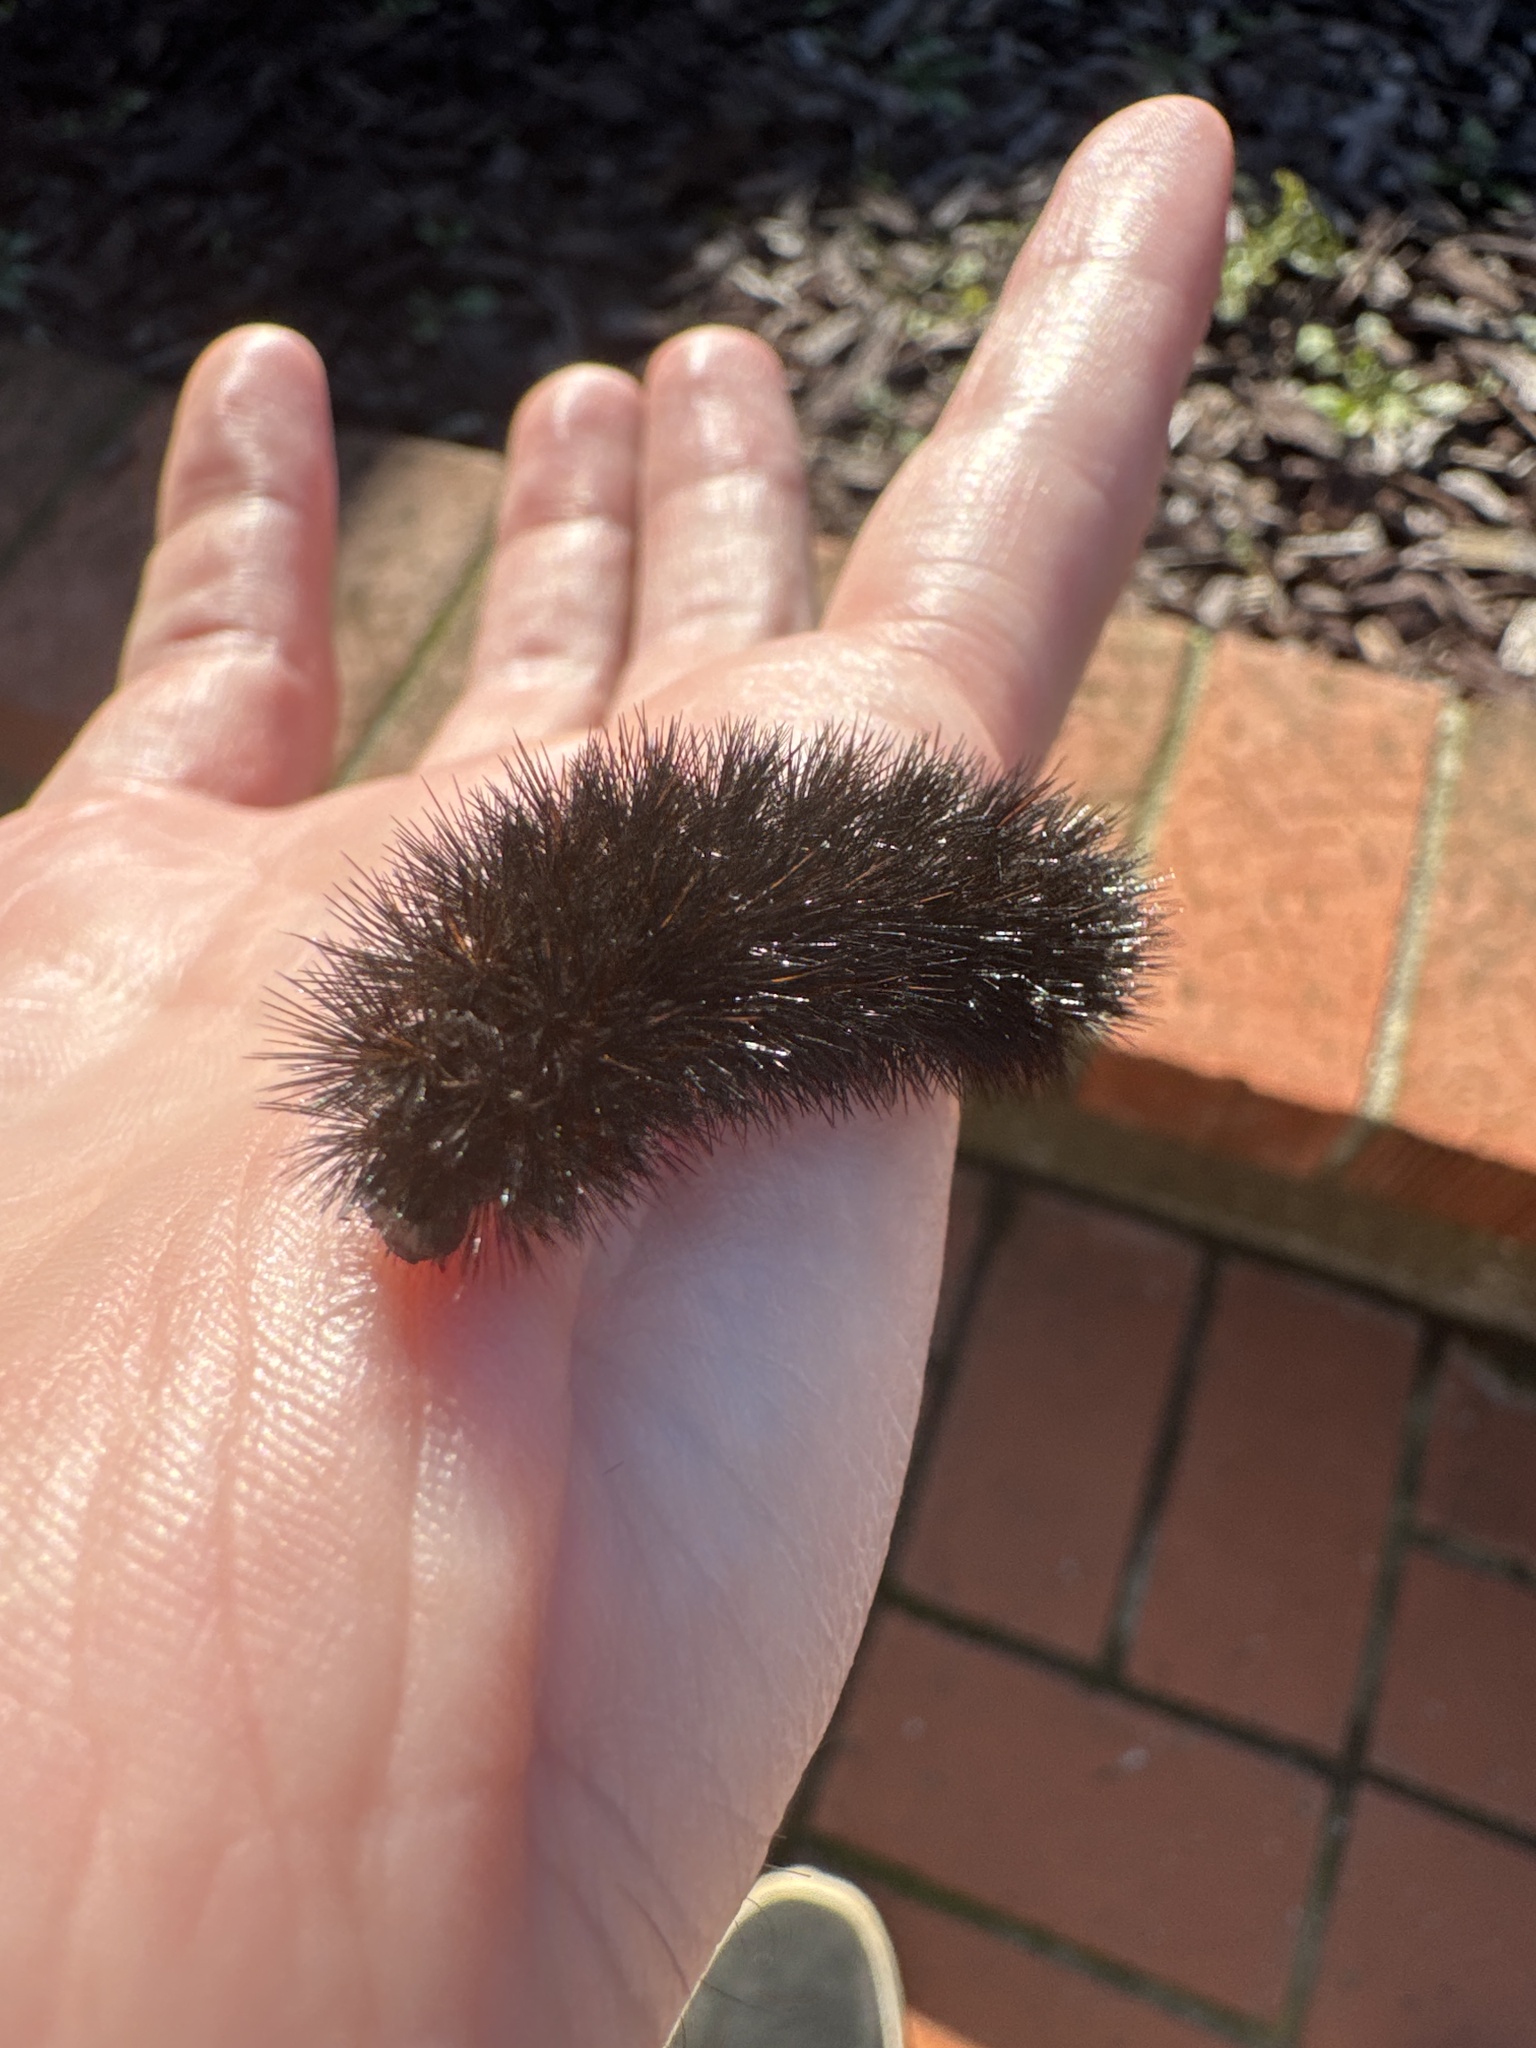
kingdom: Animalia
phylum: Arthropoda
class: Insecta
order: Lepidoptera
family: Erebidae
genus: Arachnis
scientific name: Arachnis picta
